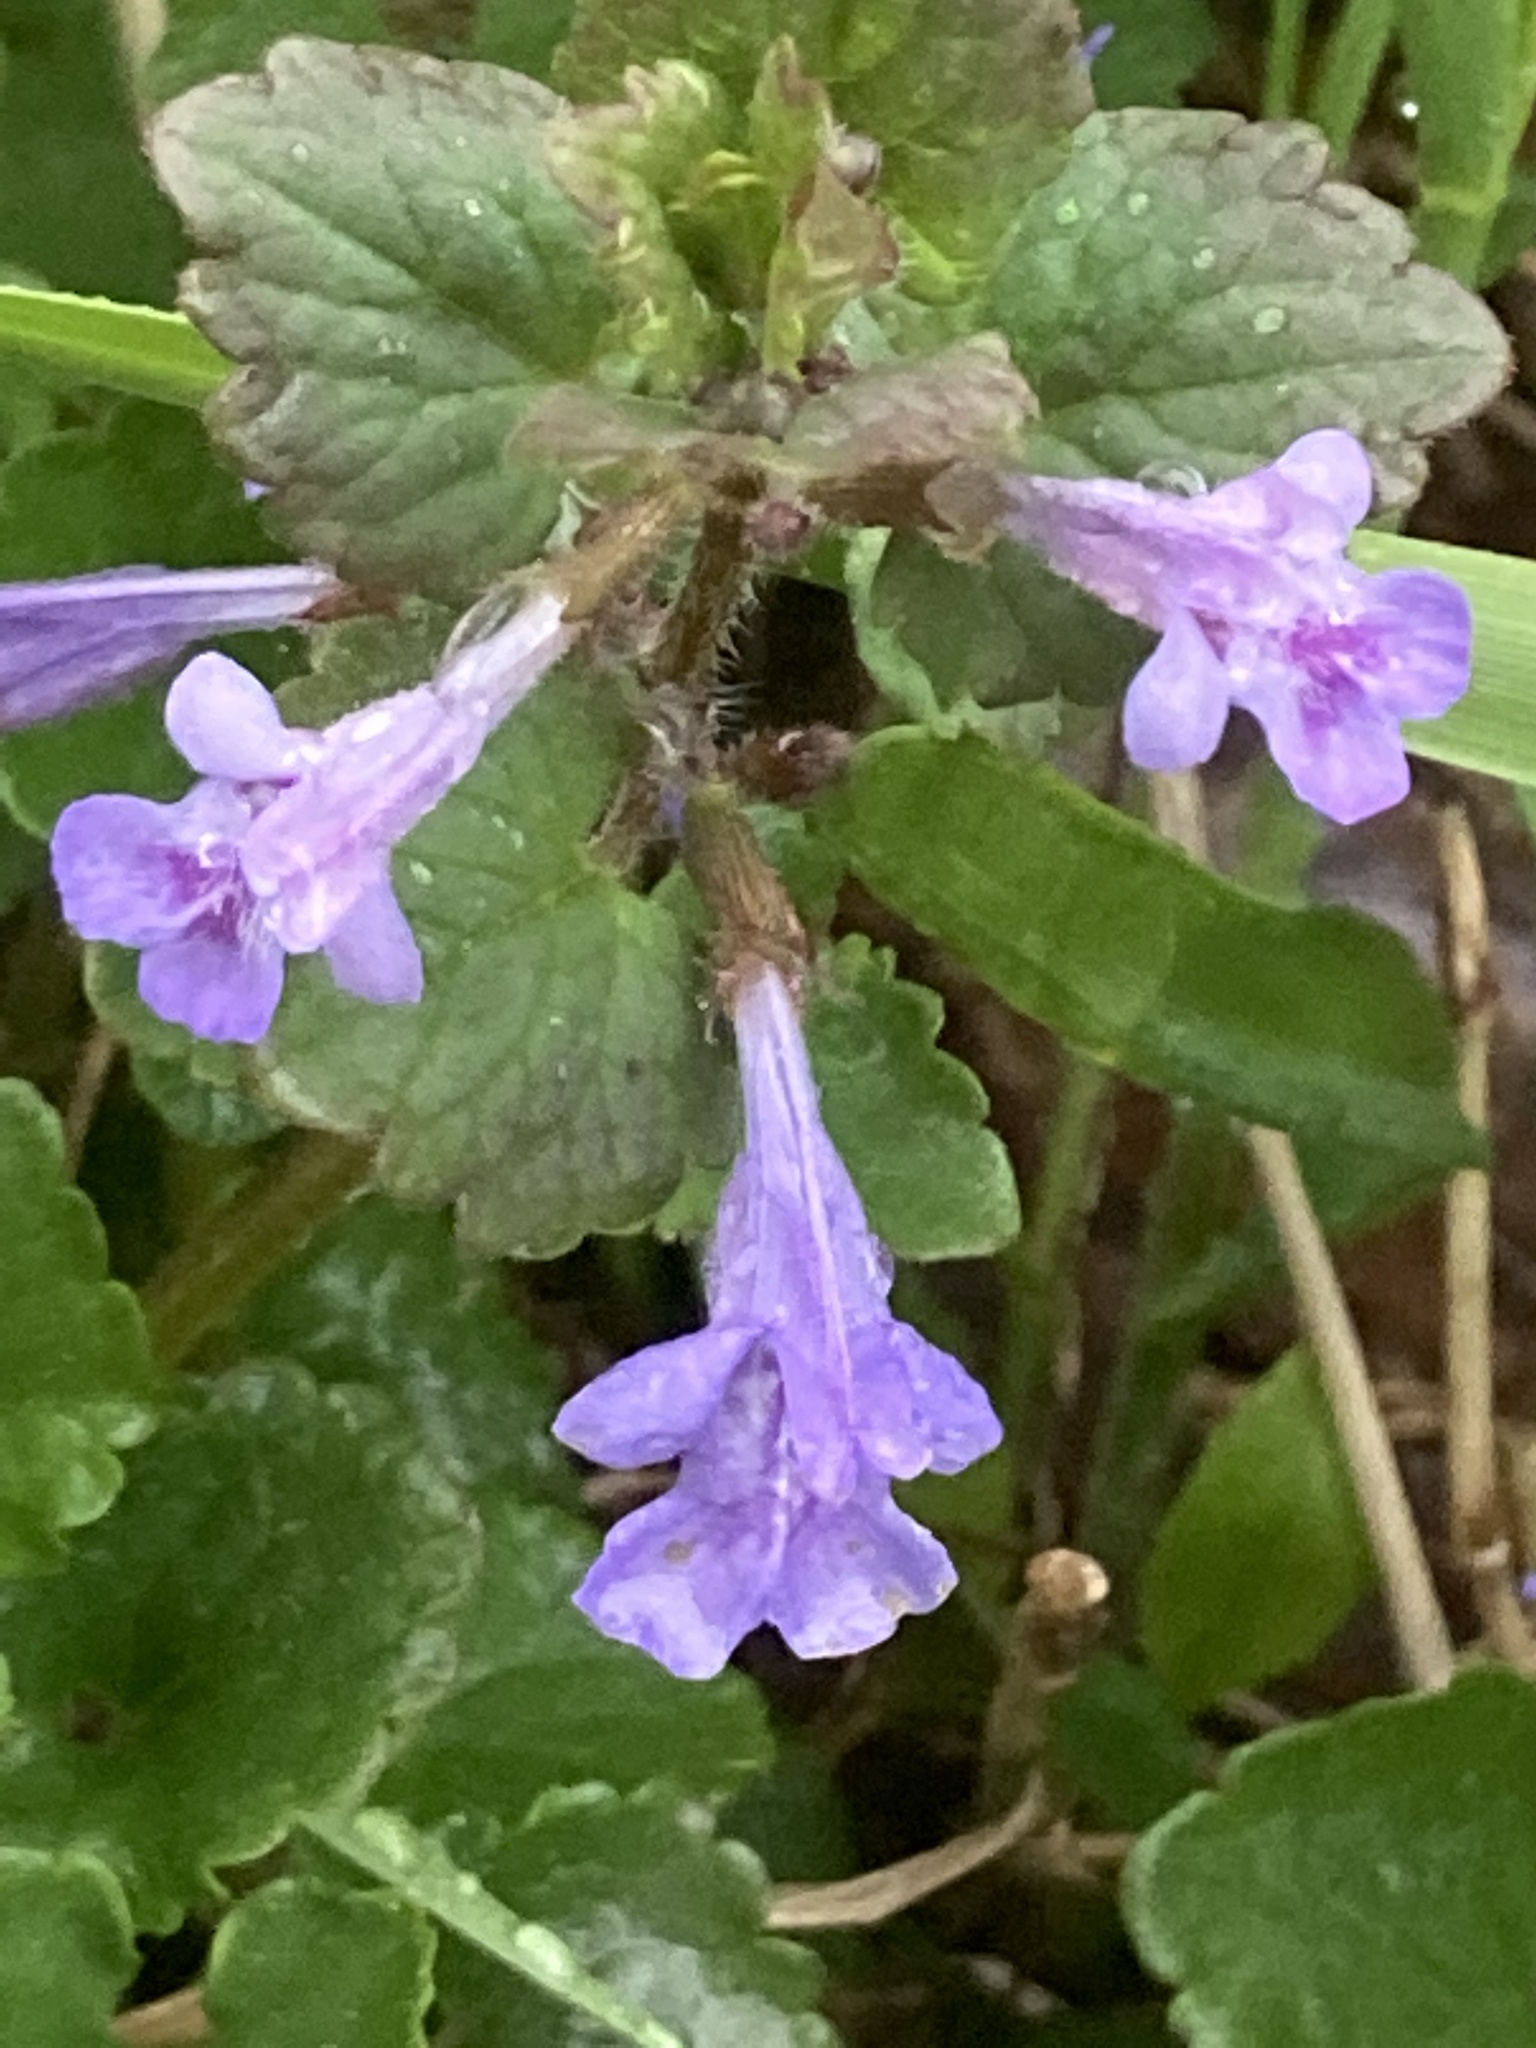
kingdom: Plantae
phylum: Tracheophyta
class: Magnoliopsida
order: Lamiales
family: Lamiaceae
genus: Glechoma
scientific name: Glechoma hederacea
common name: Ground ivy
